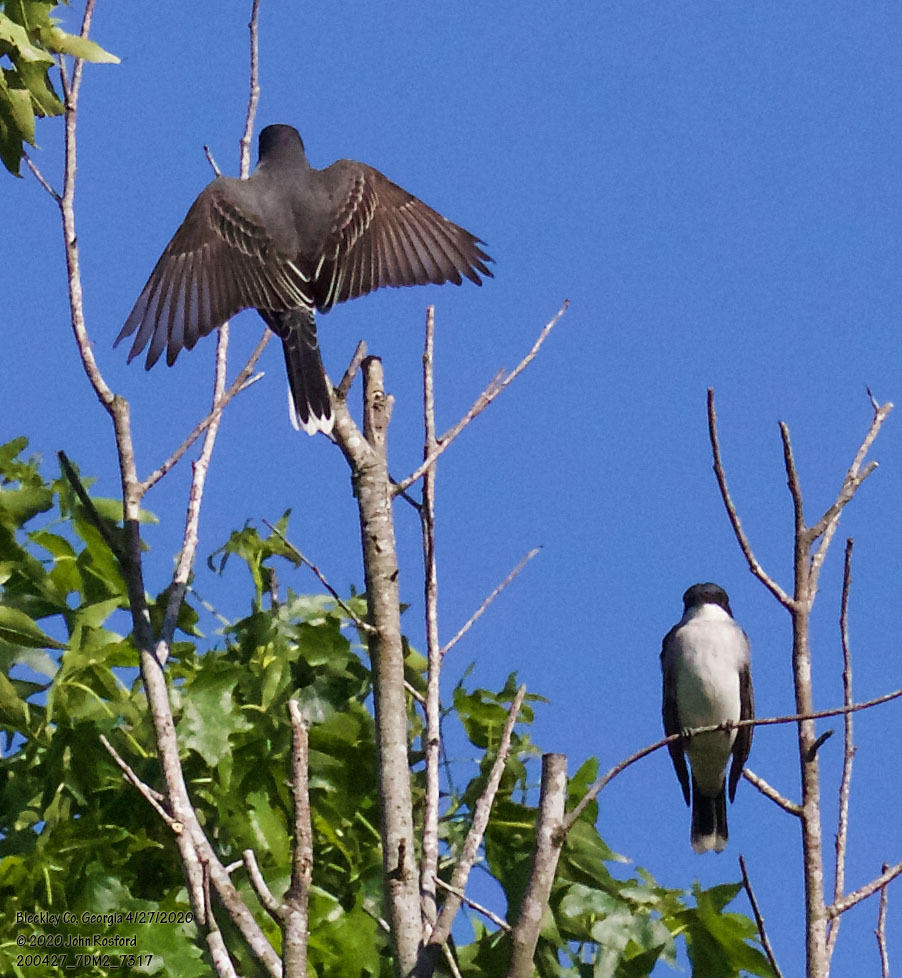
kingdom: Animalia
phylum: Chordata
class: Aves
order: Passeriformes
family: Tyrannidae
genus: Tyrannus
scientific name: Tyrannus tyrannus
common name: Eastern kingbird
